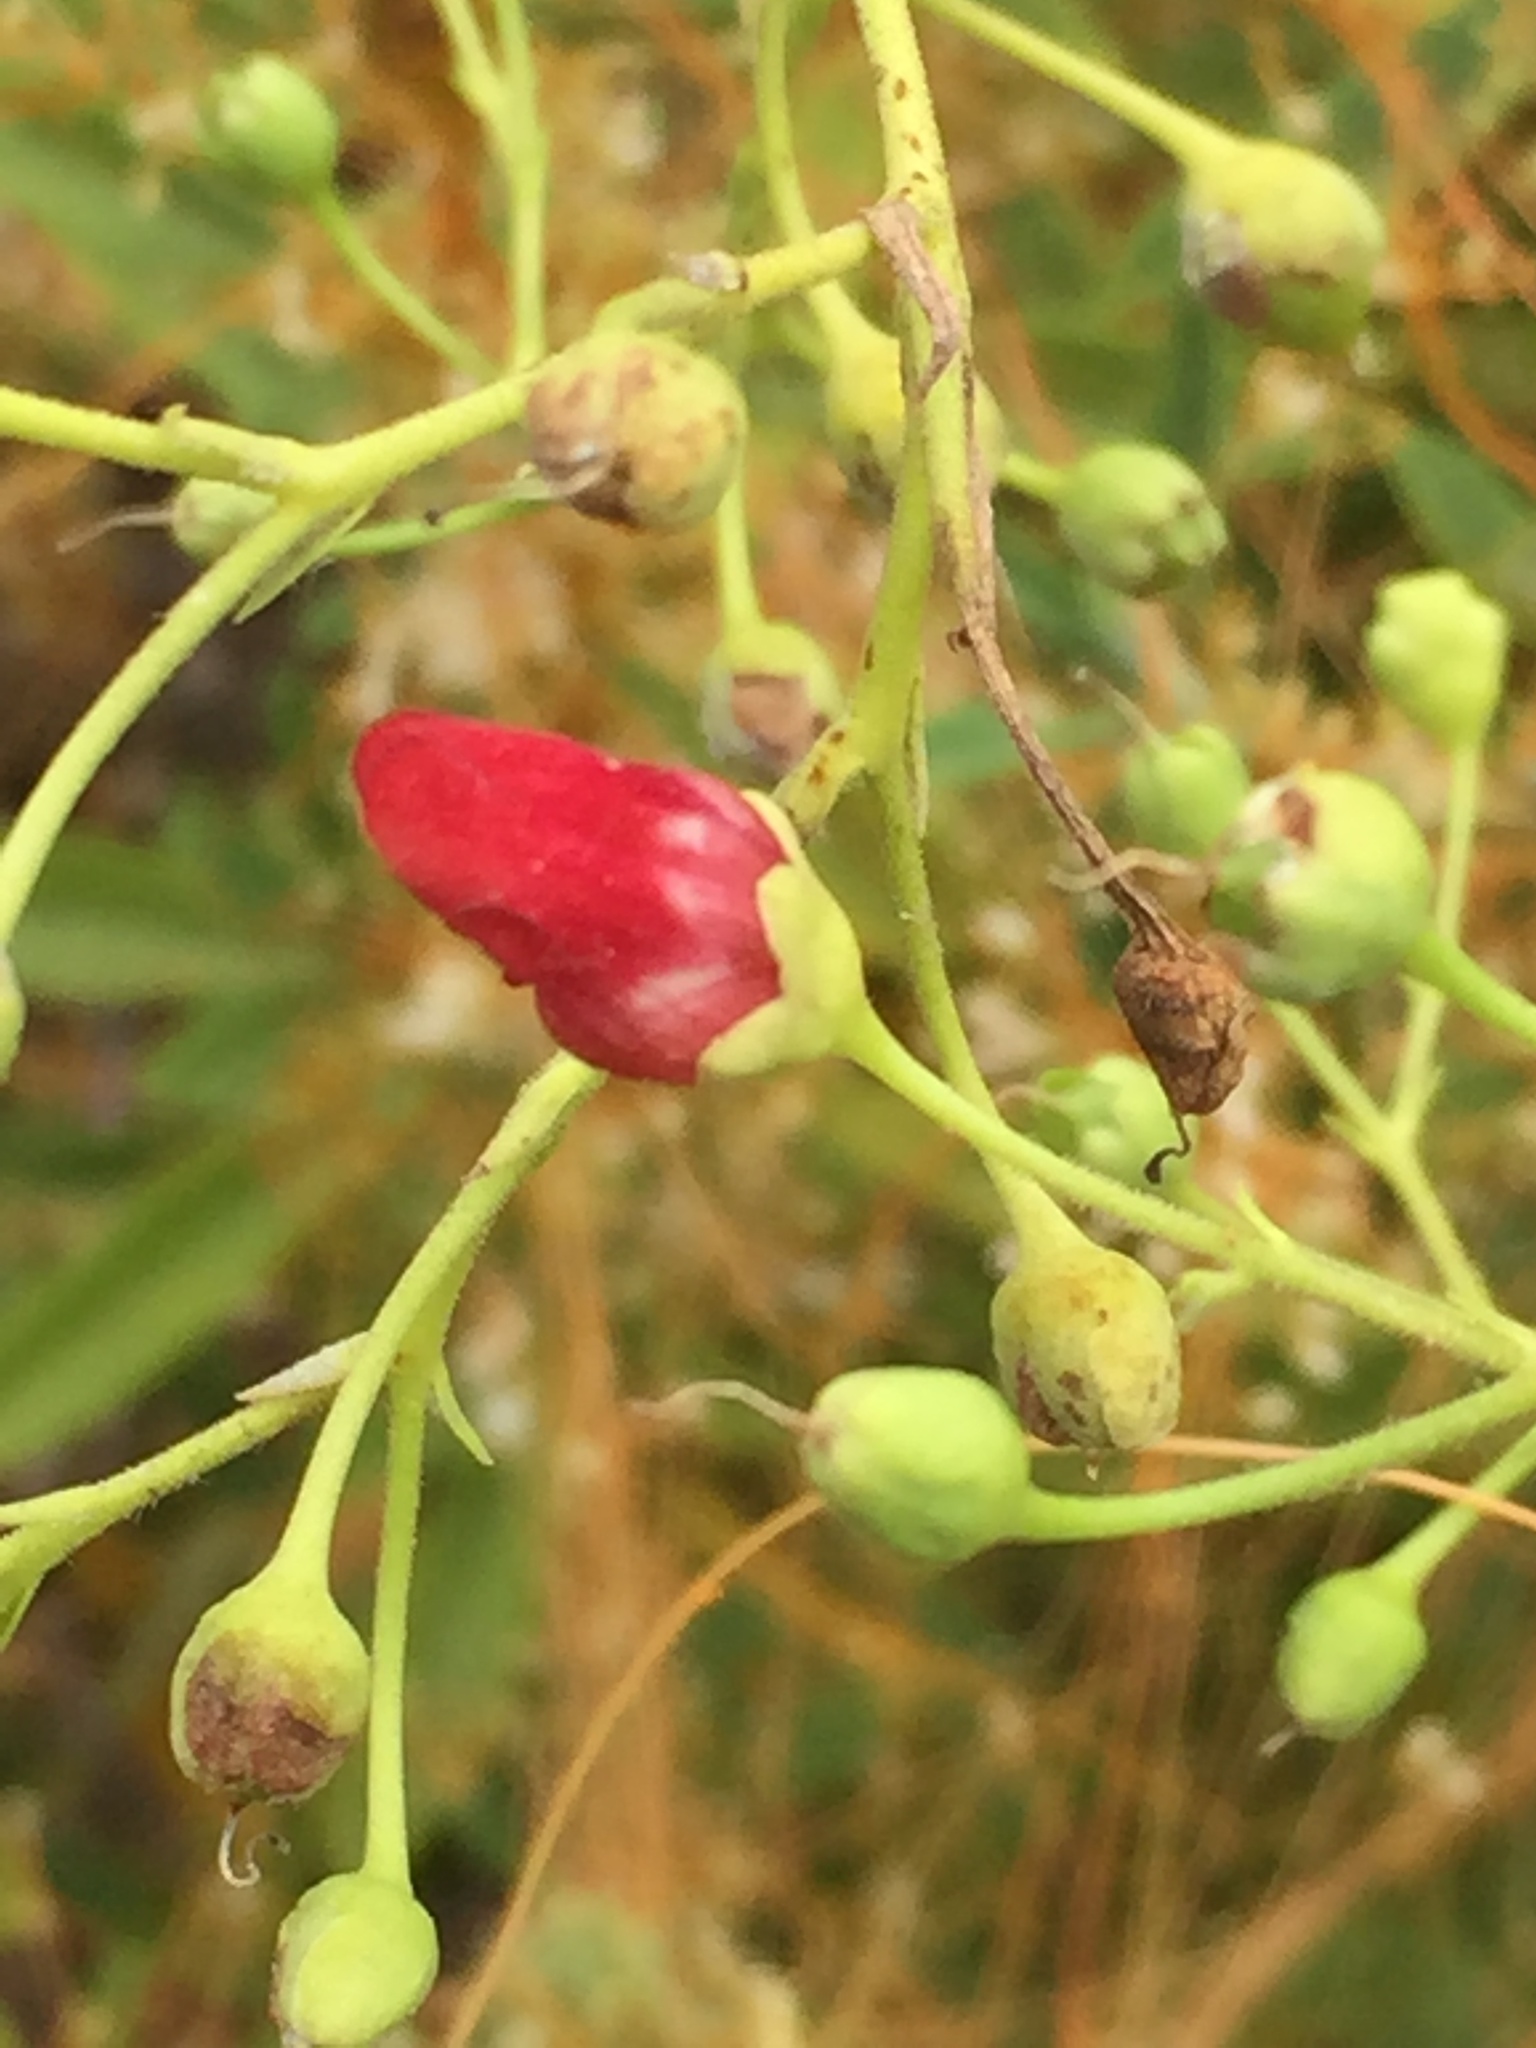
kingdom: Plantae
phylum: Tracheophyta
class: Magnoliopsida
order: Lamiales
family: Scrophulariaceae
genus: Scrophularia
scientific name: Scrophularia californica
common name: California figwort
